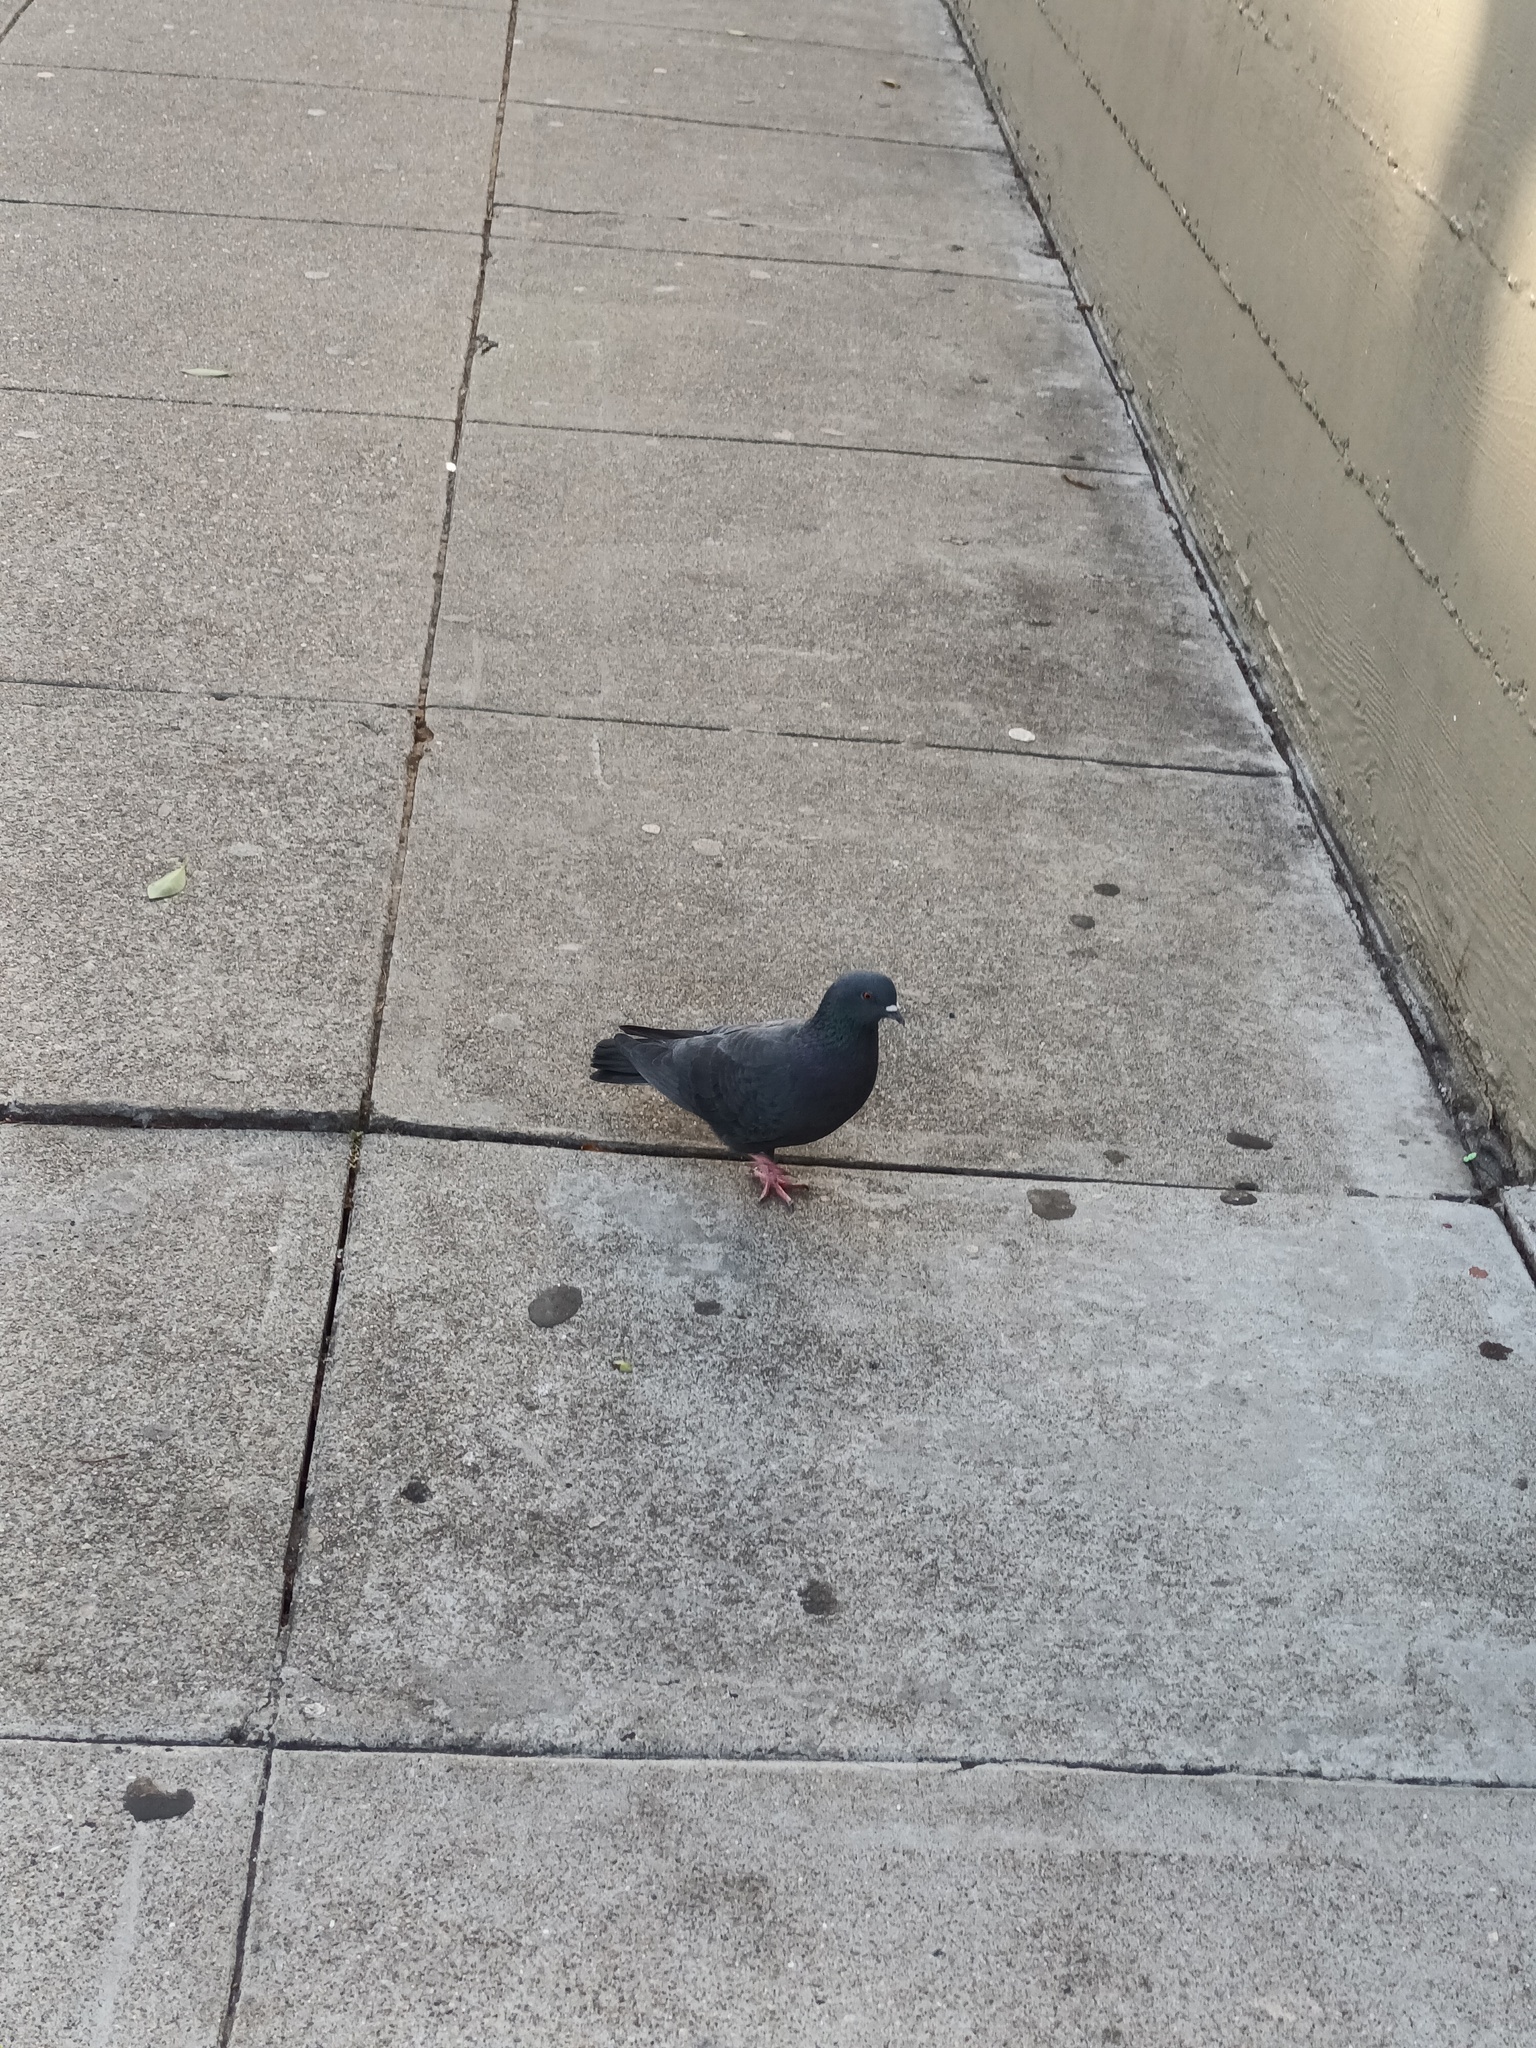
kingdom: Animalia
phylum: Chordata
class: Aves
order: Columbiformes
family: Columbidae
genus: Columba
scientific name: Columba livia
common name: Rock pigeon
